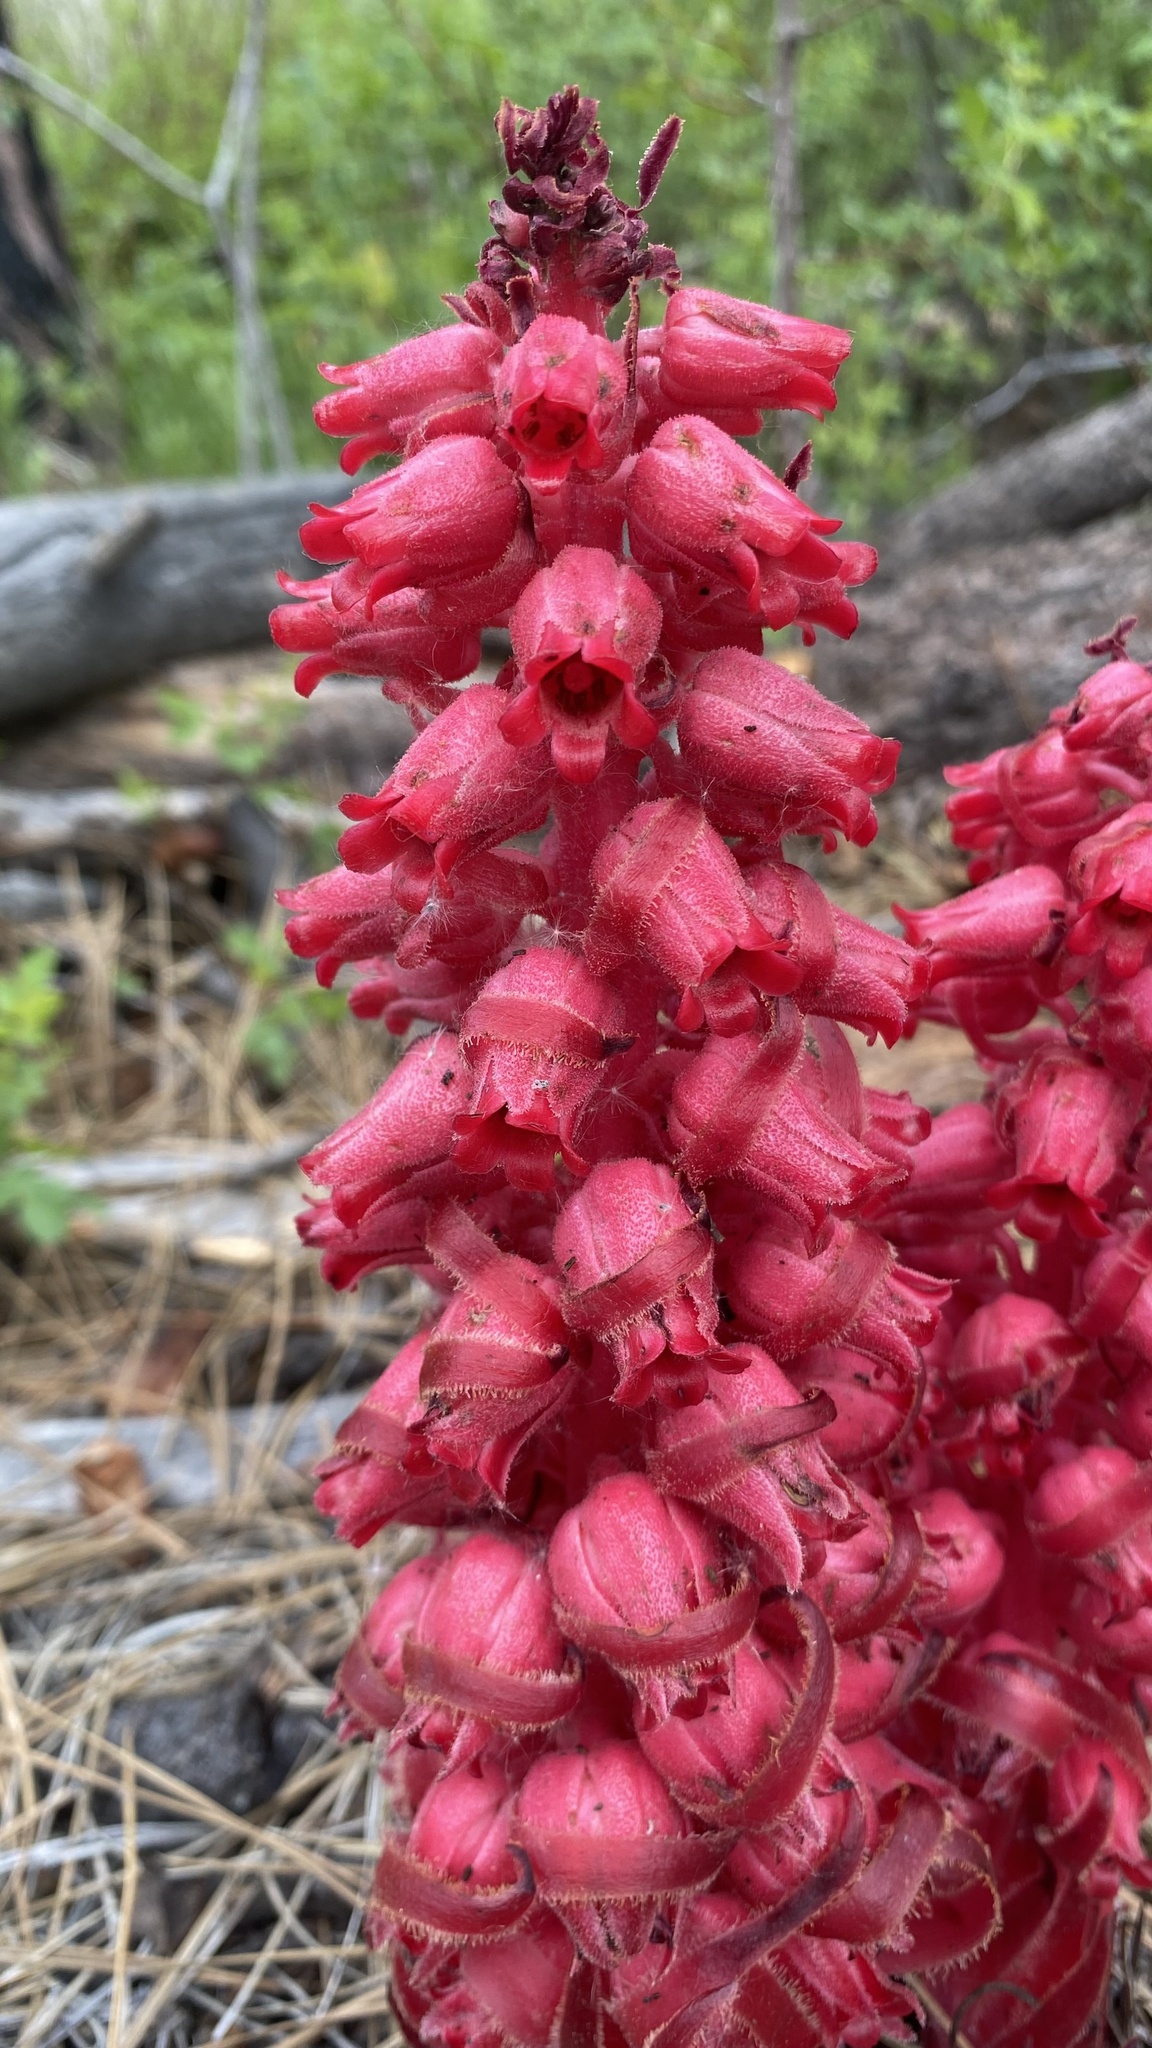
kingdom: Plantae
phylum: Tracheophyta
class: Magnoliopsida
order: Ericales
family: Ericaceae
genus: Sarcodes
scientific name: Sarcodes sanguinea
